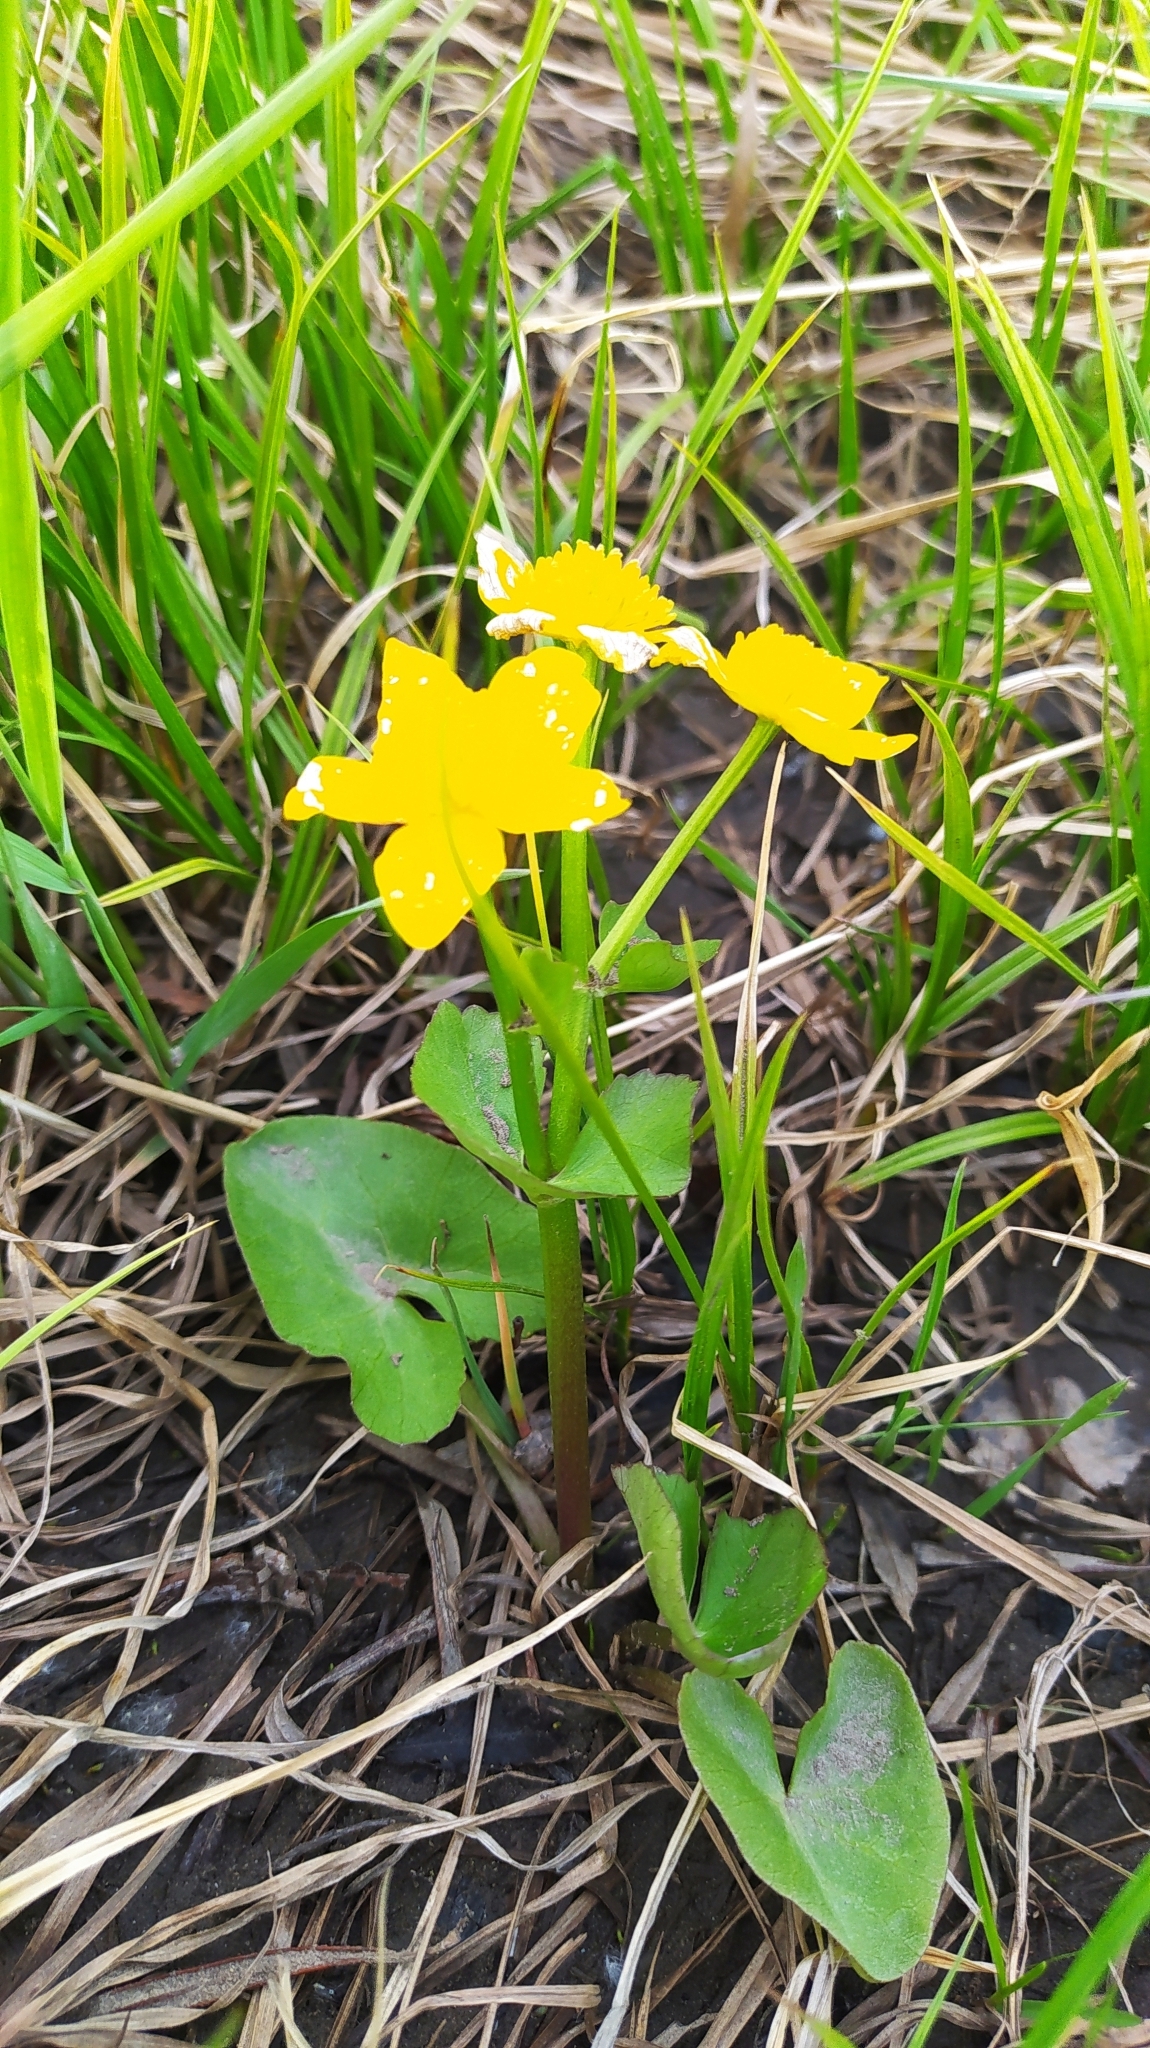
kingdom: Plantae
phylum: Tracheophyta
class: Magnoliopsida
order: Ranunculales
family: Ranunculaceae
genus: Caltha
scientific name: Caltha palustris
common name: Marsh marigold
